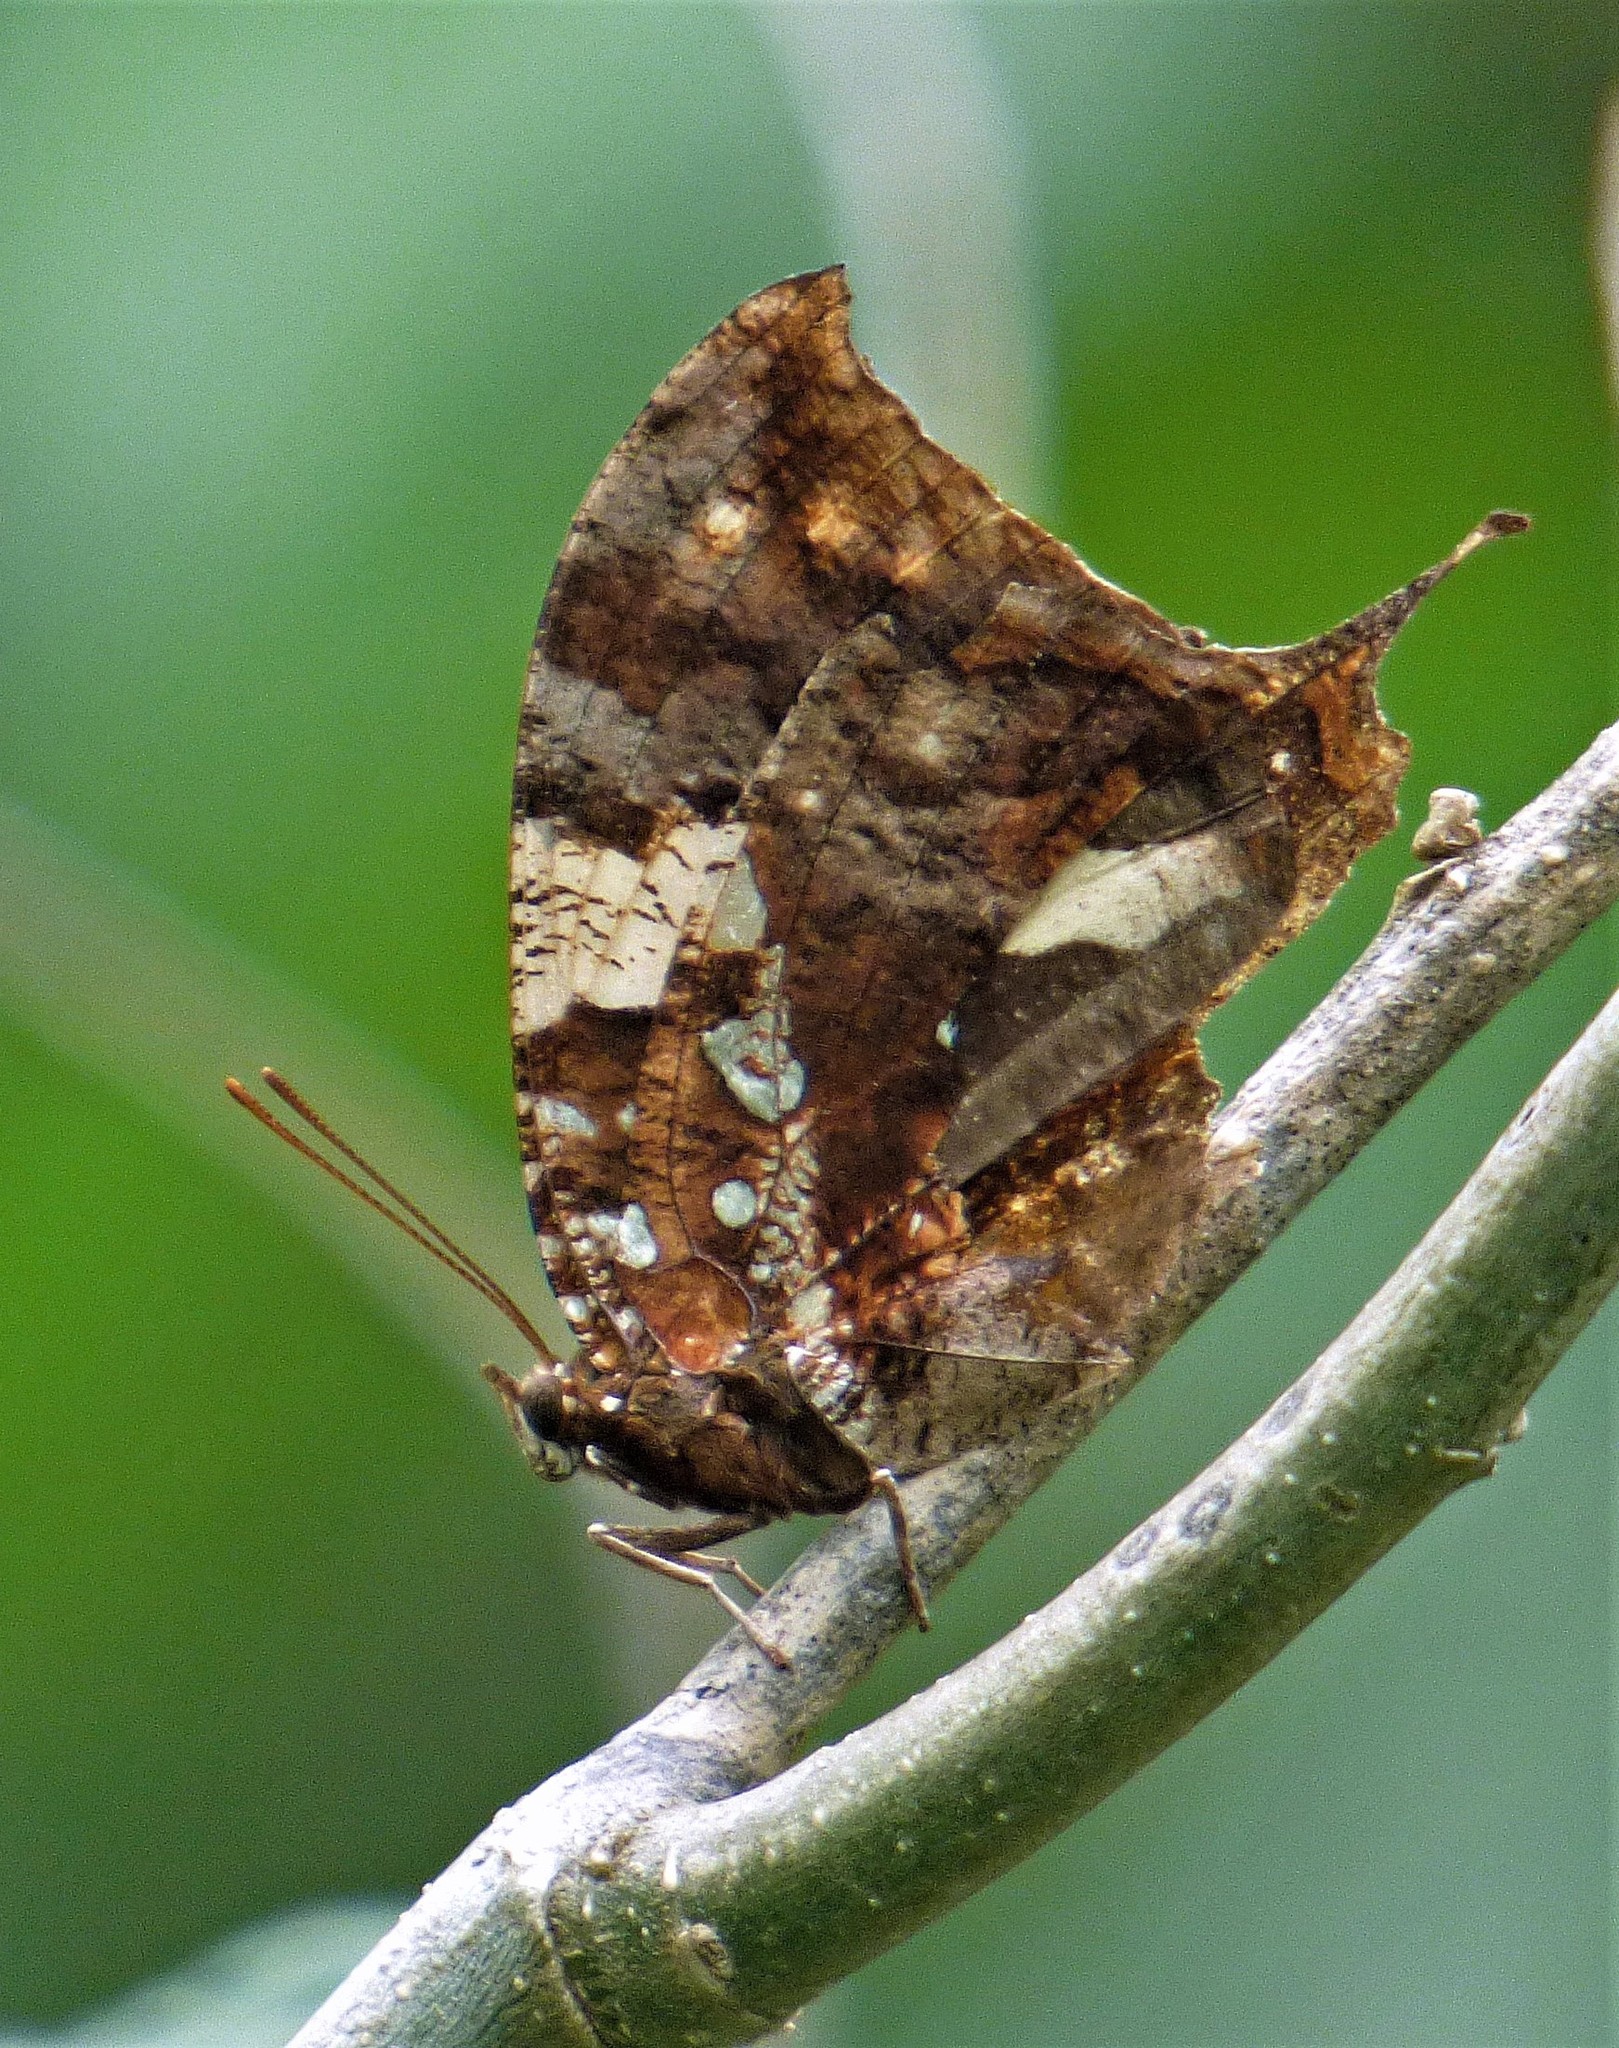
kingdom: Animalia
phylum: Arthropoda
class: Insecta
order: Lepidoptera
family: Nymphalidae
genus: Hypna
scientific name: Hypna clytemnestra
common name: Silver-studded leafwing
